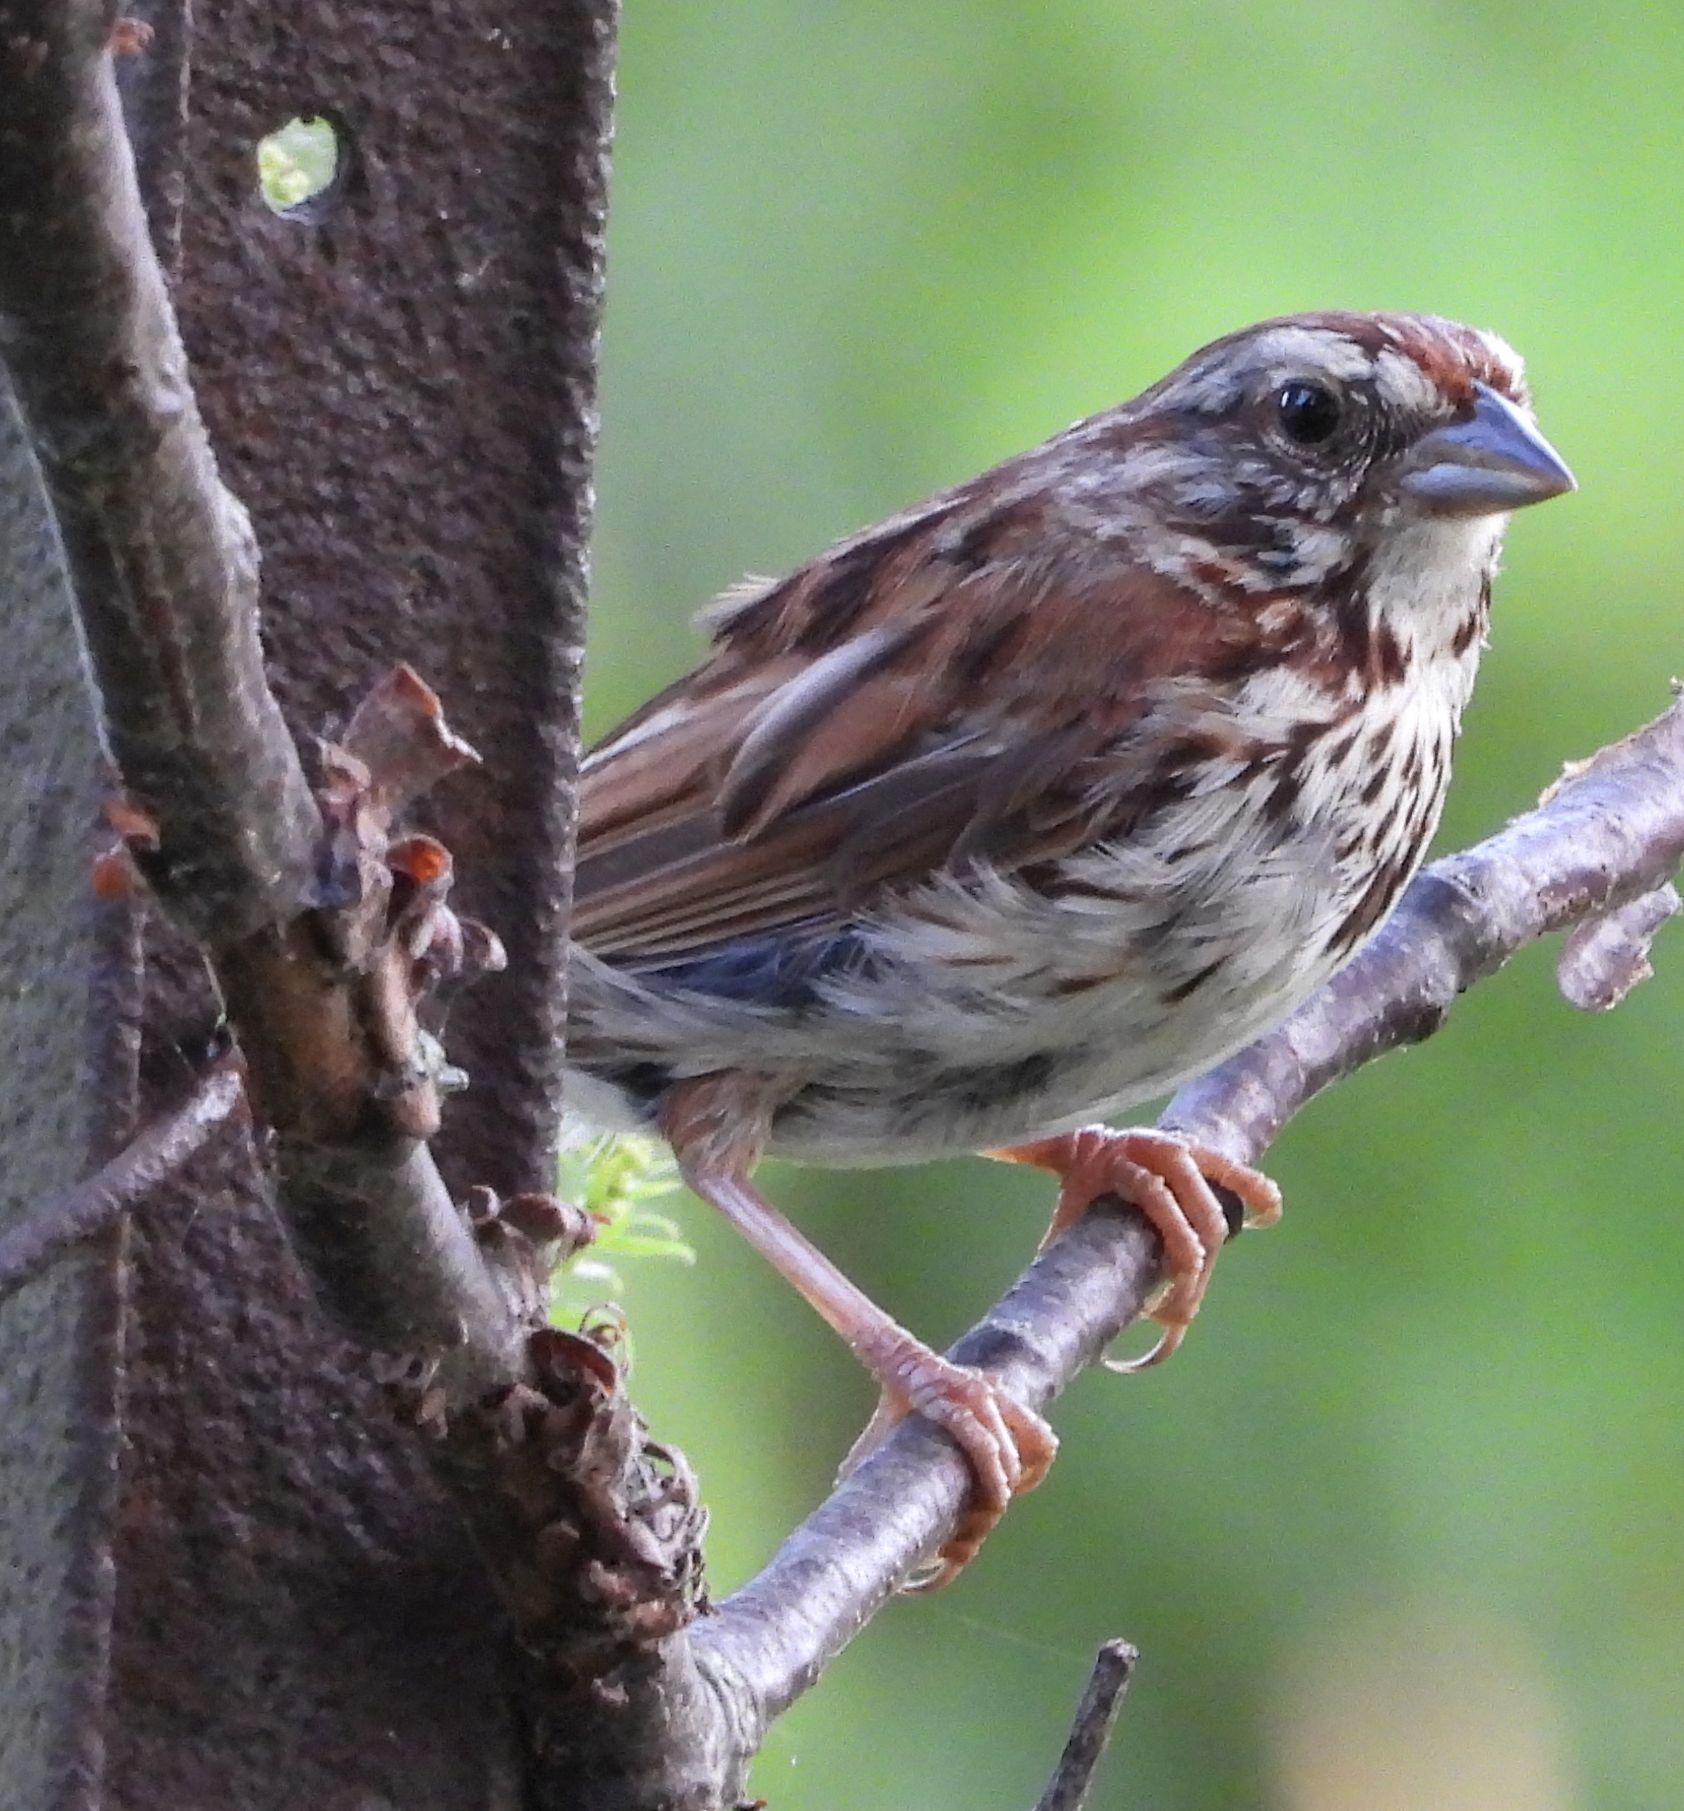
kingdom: Animalia
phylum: Chordata
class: Aves
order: Passeriformes
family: Passerellidae
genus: Melospiza
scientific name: Melospiza melodia
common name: Song sparrow
